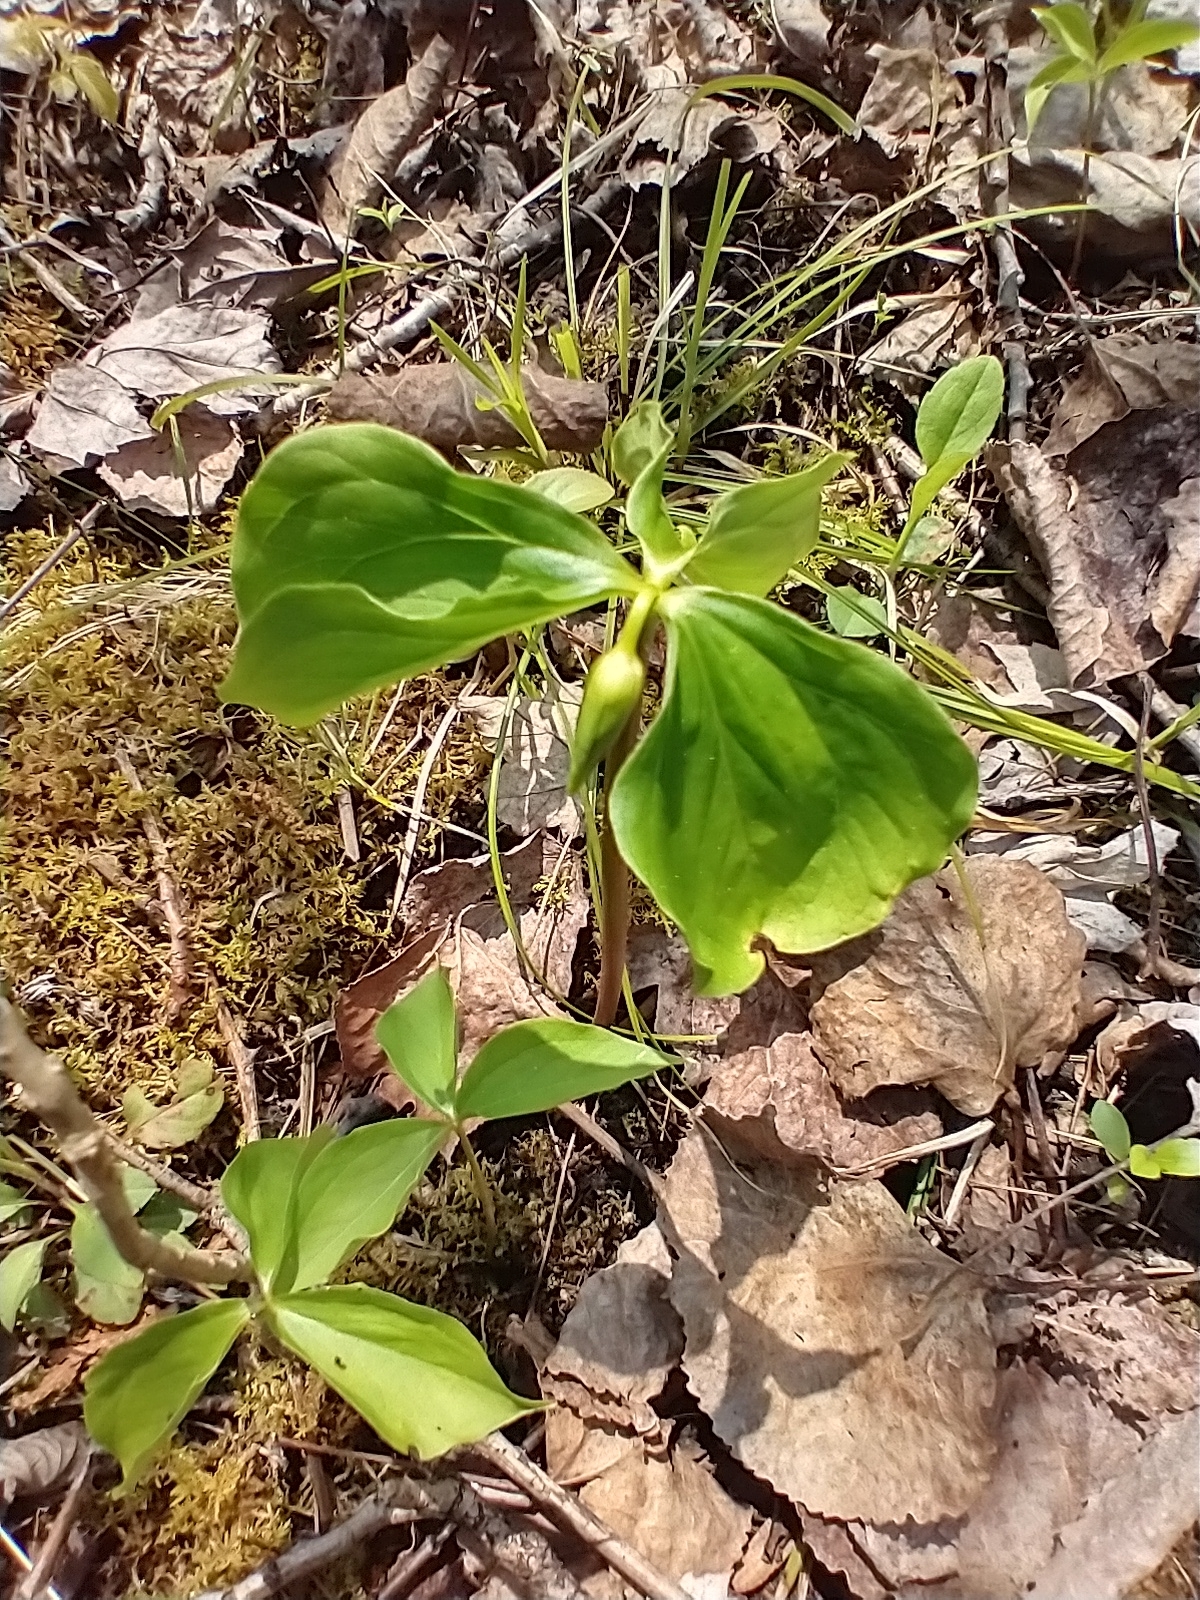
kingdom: Plantae
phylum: Tracheophyta
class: Liliopsida
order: Liliales
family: Melanthiaceae
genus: Trillium
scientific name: Trillium cernuum
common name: Nodding trillium
